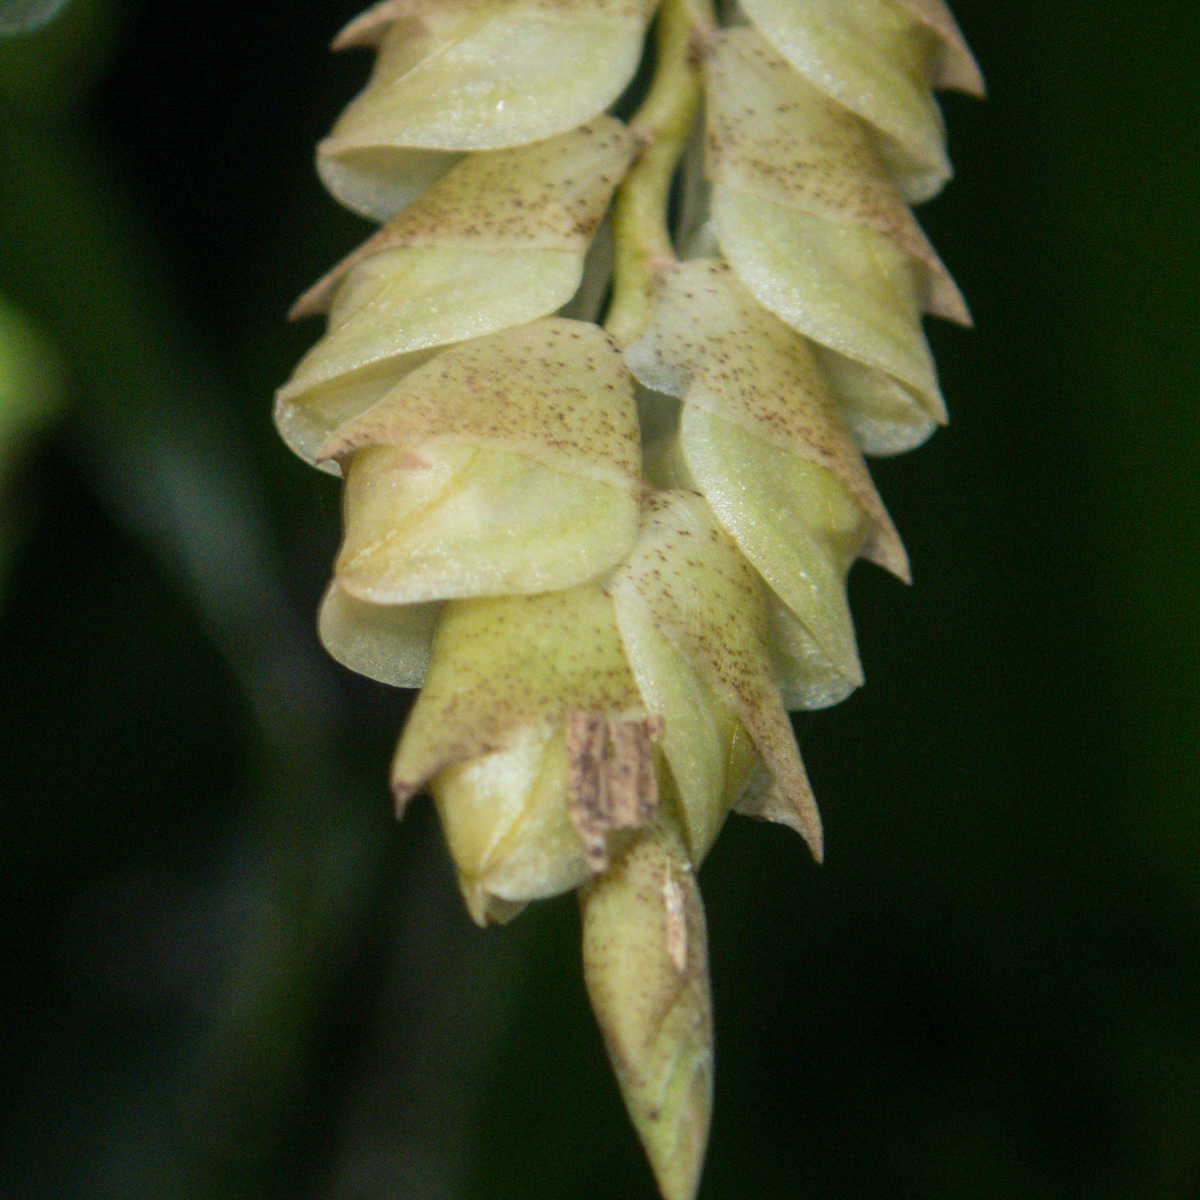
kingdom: Plantae
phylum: Tracheophyta
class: Liliopsida
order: Asparagales
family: Orchidaceae
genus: Pholidota
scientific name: Pholidota imbricata
